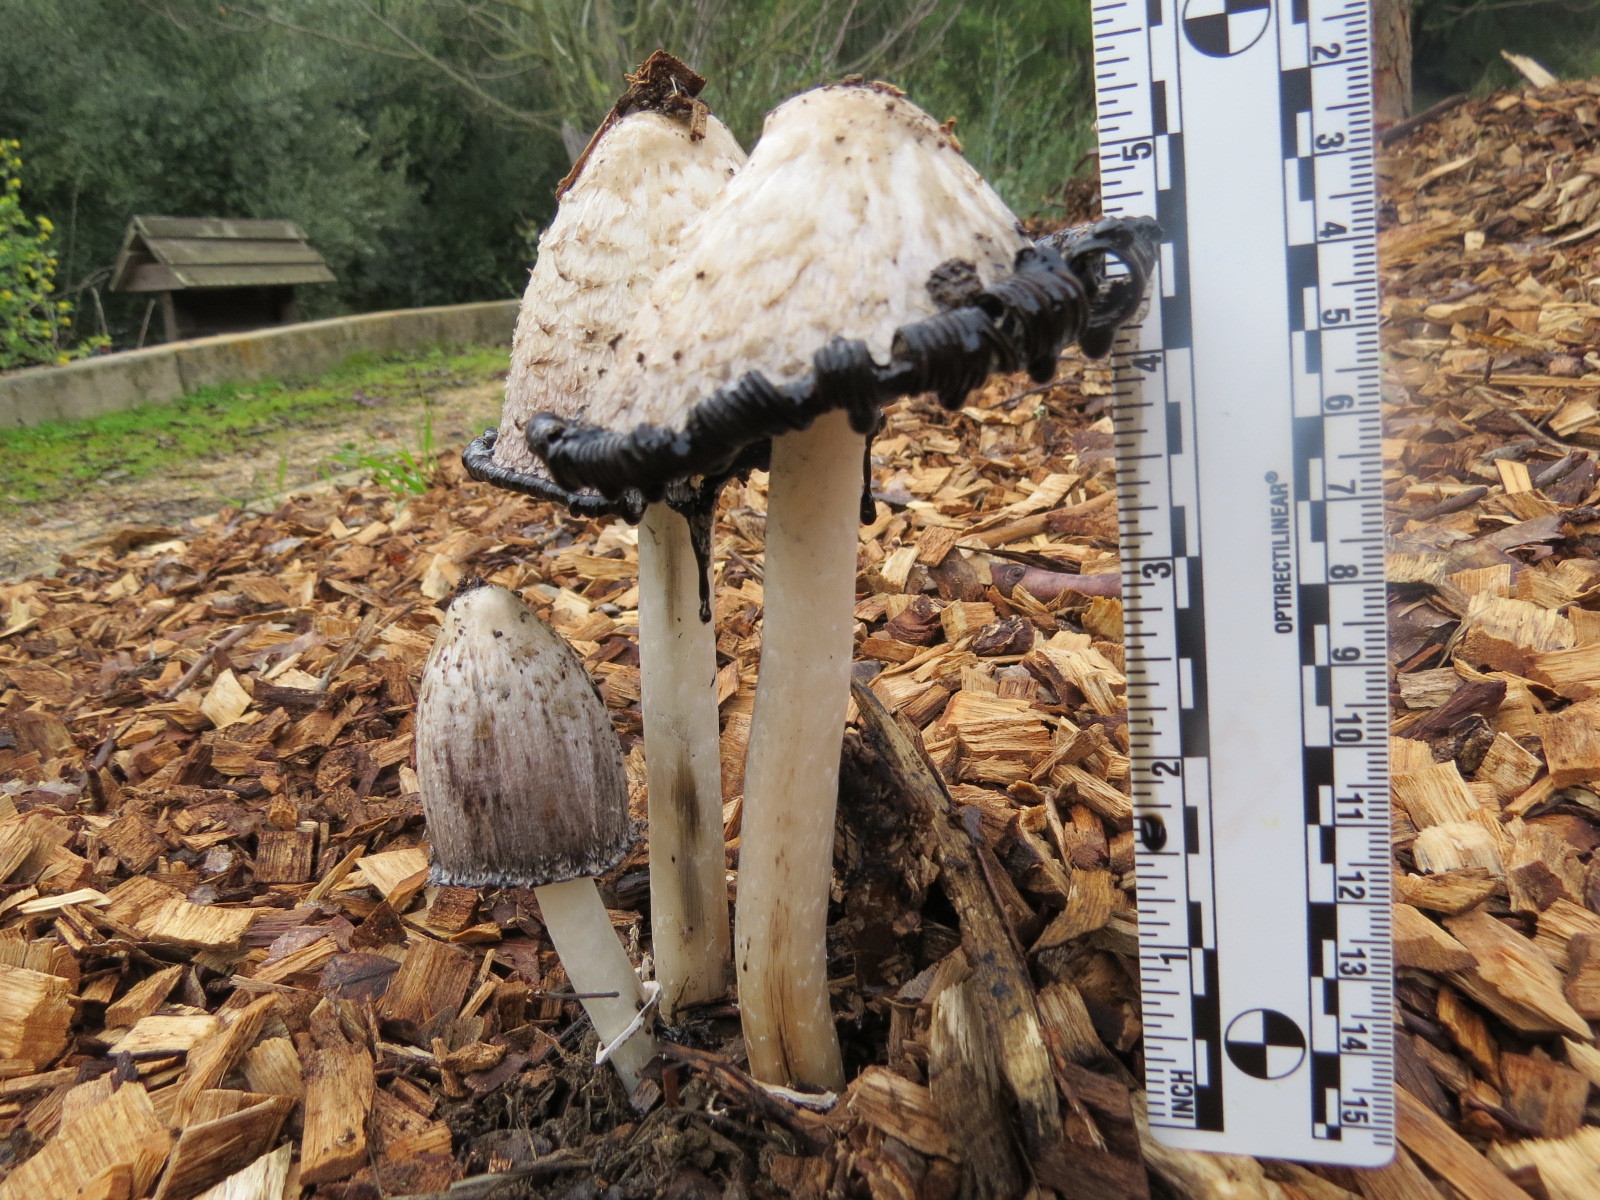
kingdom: Fungi
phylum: Basidiomycota
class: Agaricomycetes
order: Agaricales
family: Agaricaceae
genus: Coprinus
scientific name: Coprinus comatus
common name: Lawyer's wig
